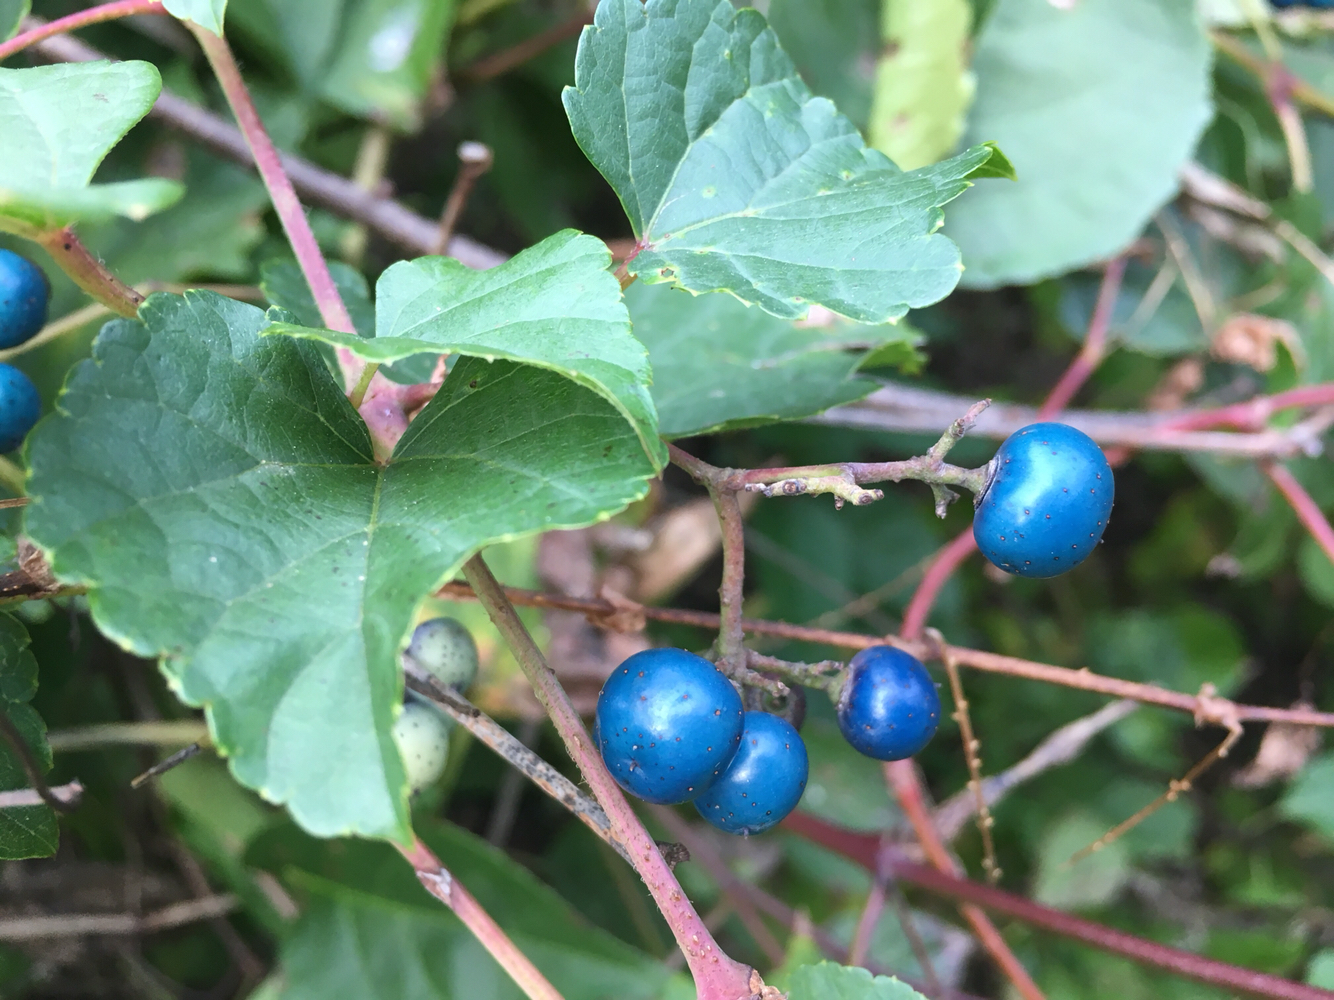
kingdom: Plantae
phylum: Tracheophyta
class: Magnoliopsida
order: Vitales
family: Vitaceae
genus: Ampelopsis
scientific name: Ampelopsis glandulosa
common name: Amur peppervine
